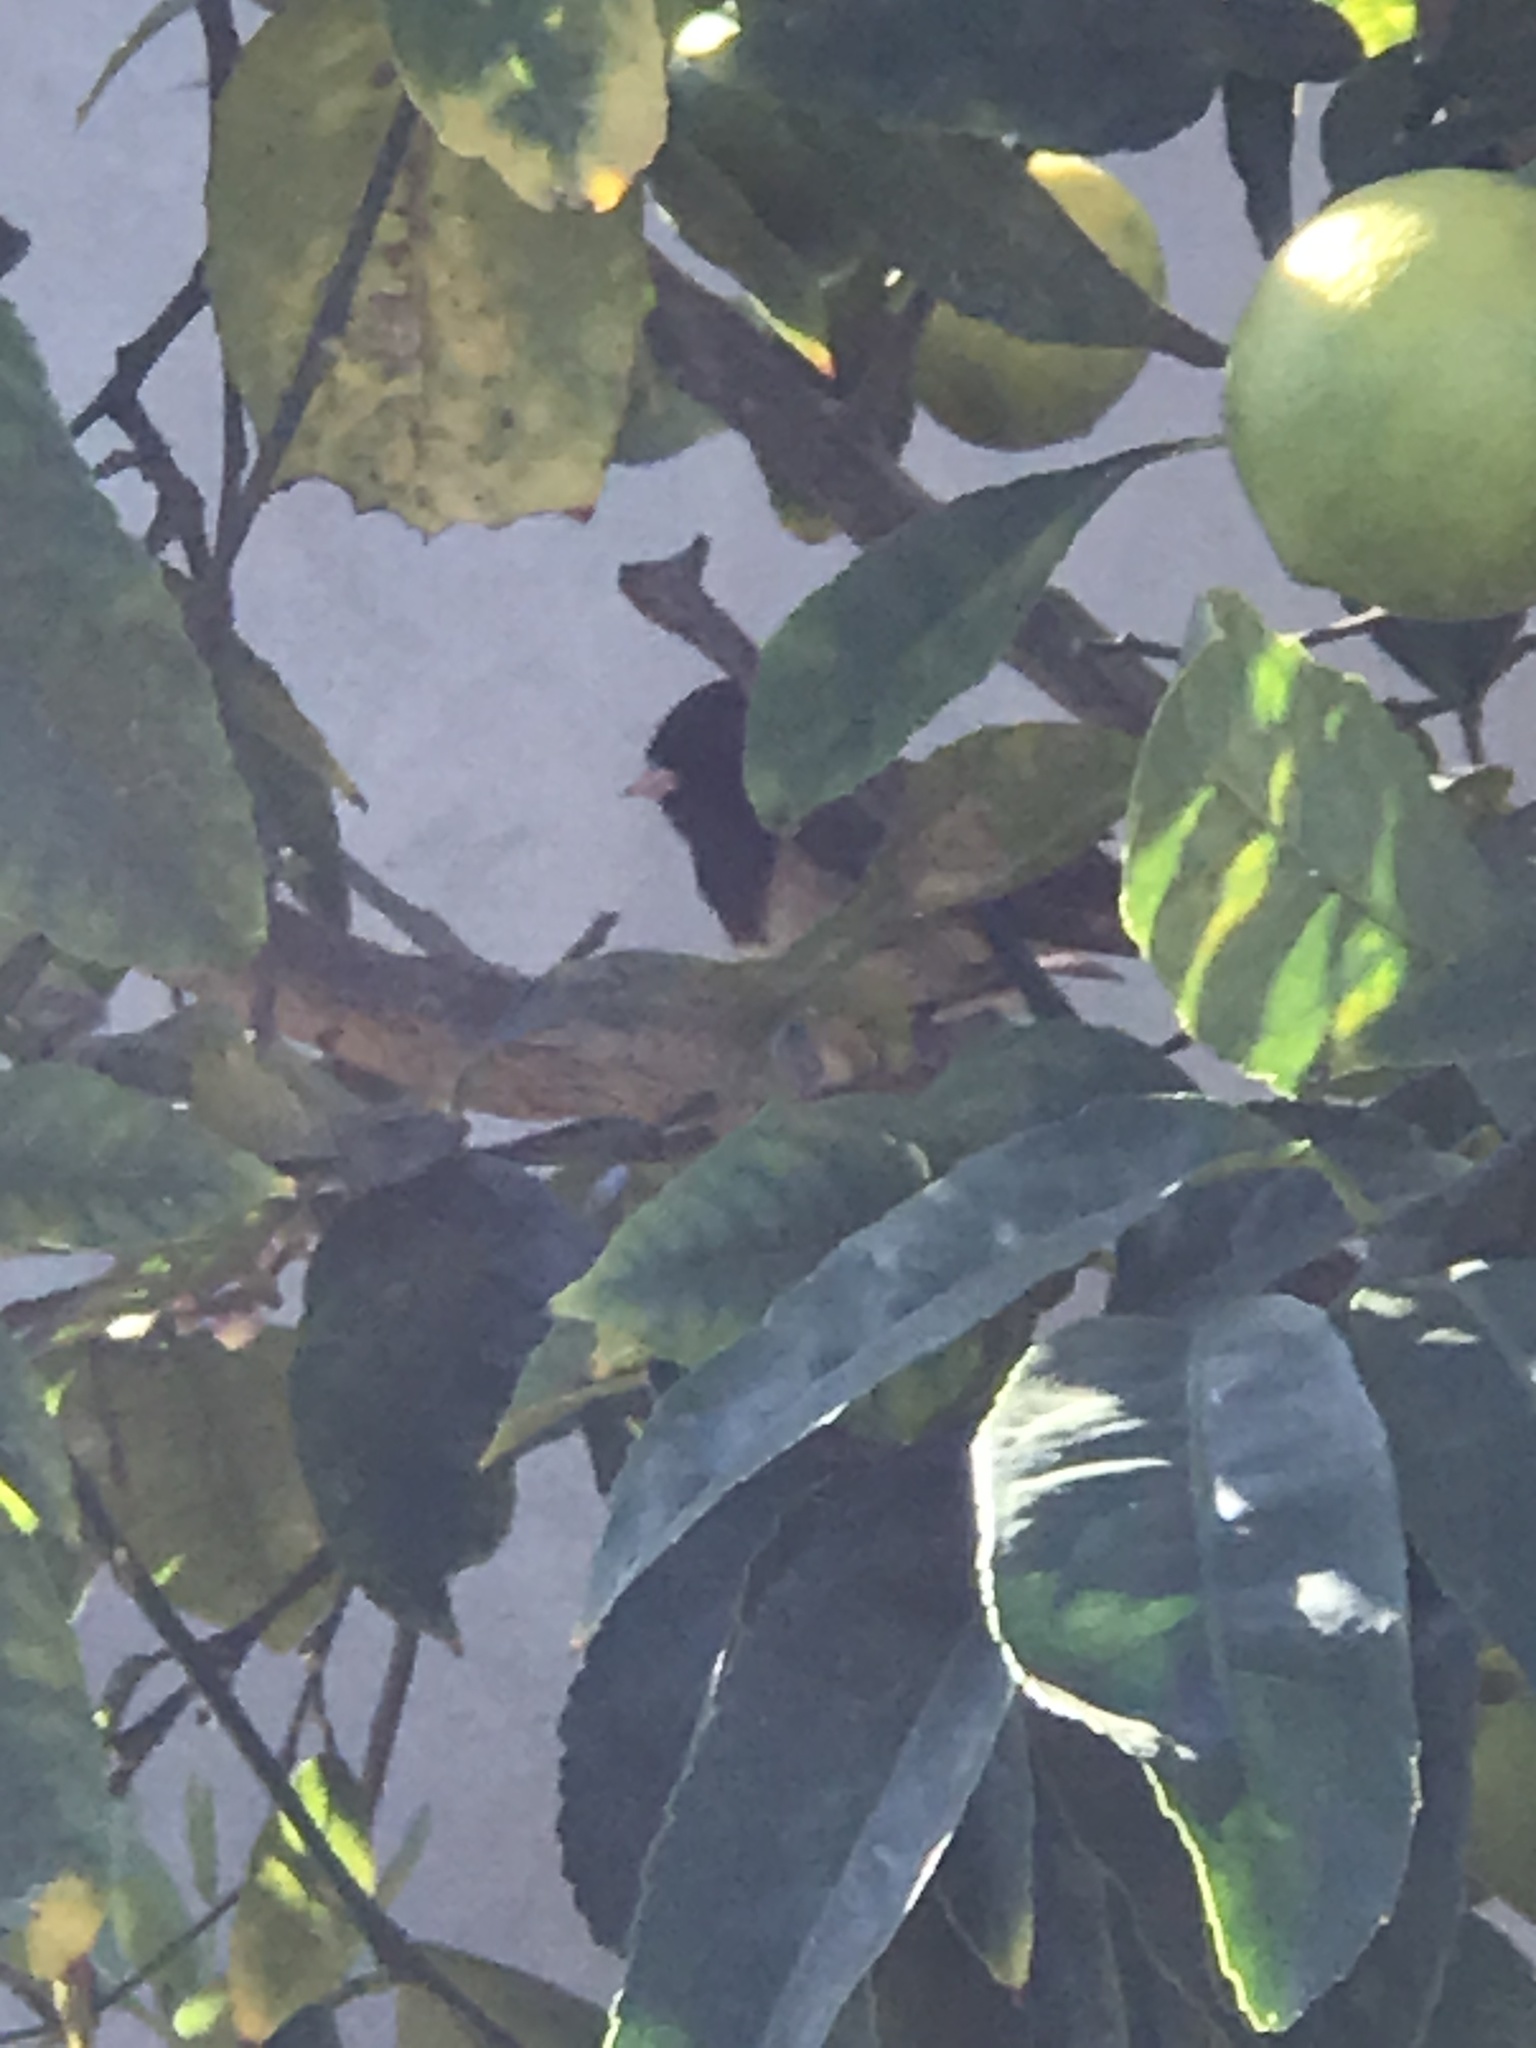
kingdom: Animalia
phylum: Chordata
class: Aves
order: Passeriformes
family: Passerellidae
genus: Junco
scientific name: Junco hyemalis
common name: Dark-eyed junco
